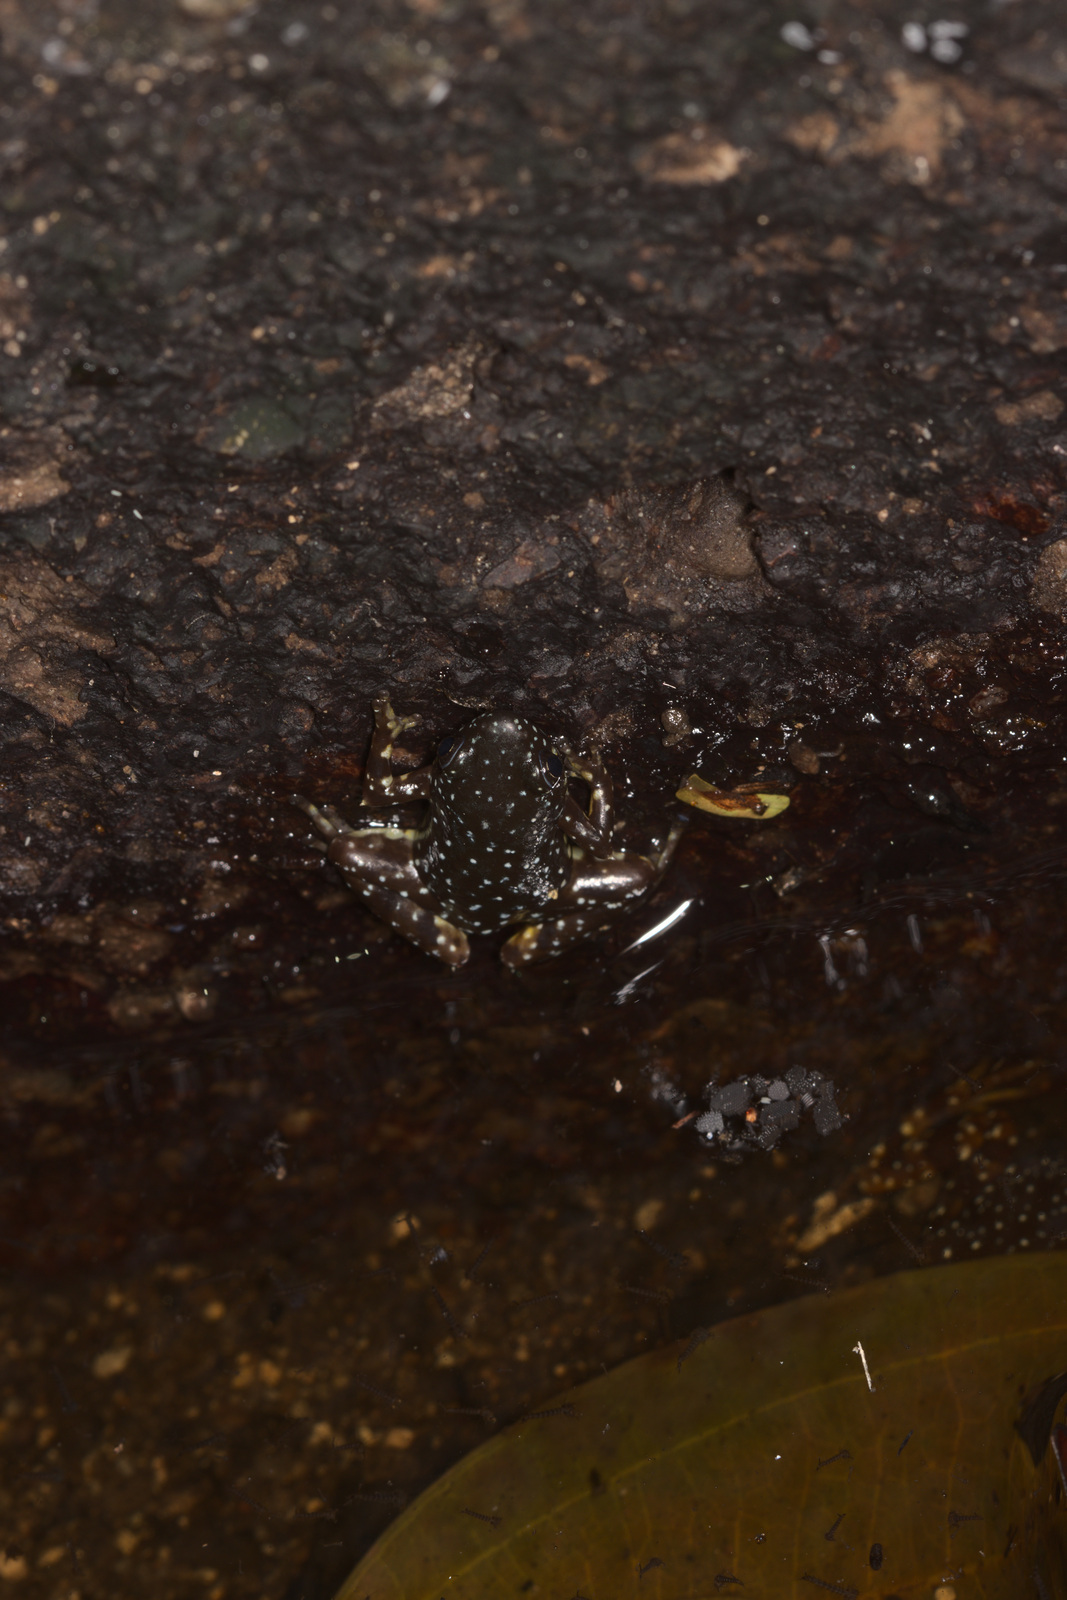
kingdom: Animalia
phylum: Chordata
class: Amphibia
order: Anura
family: Microhylidae
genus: Chaperina
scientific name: Chaperina fusca
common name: Saffron-bellied frog
